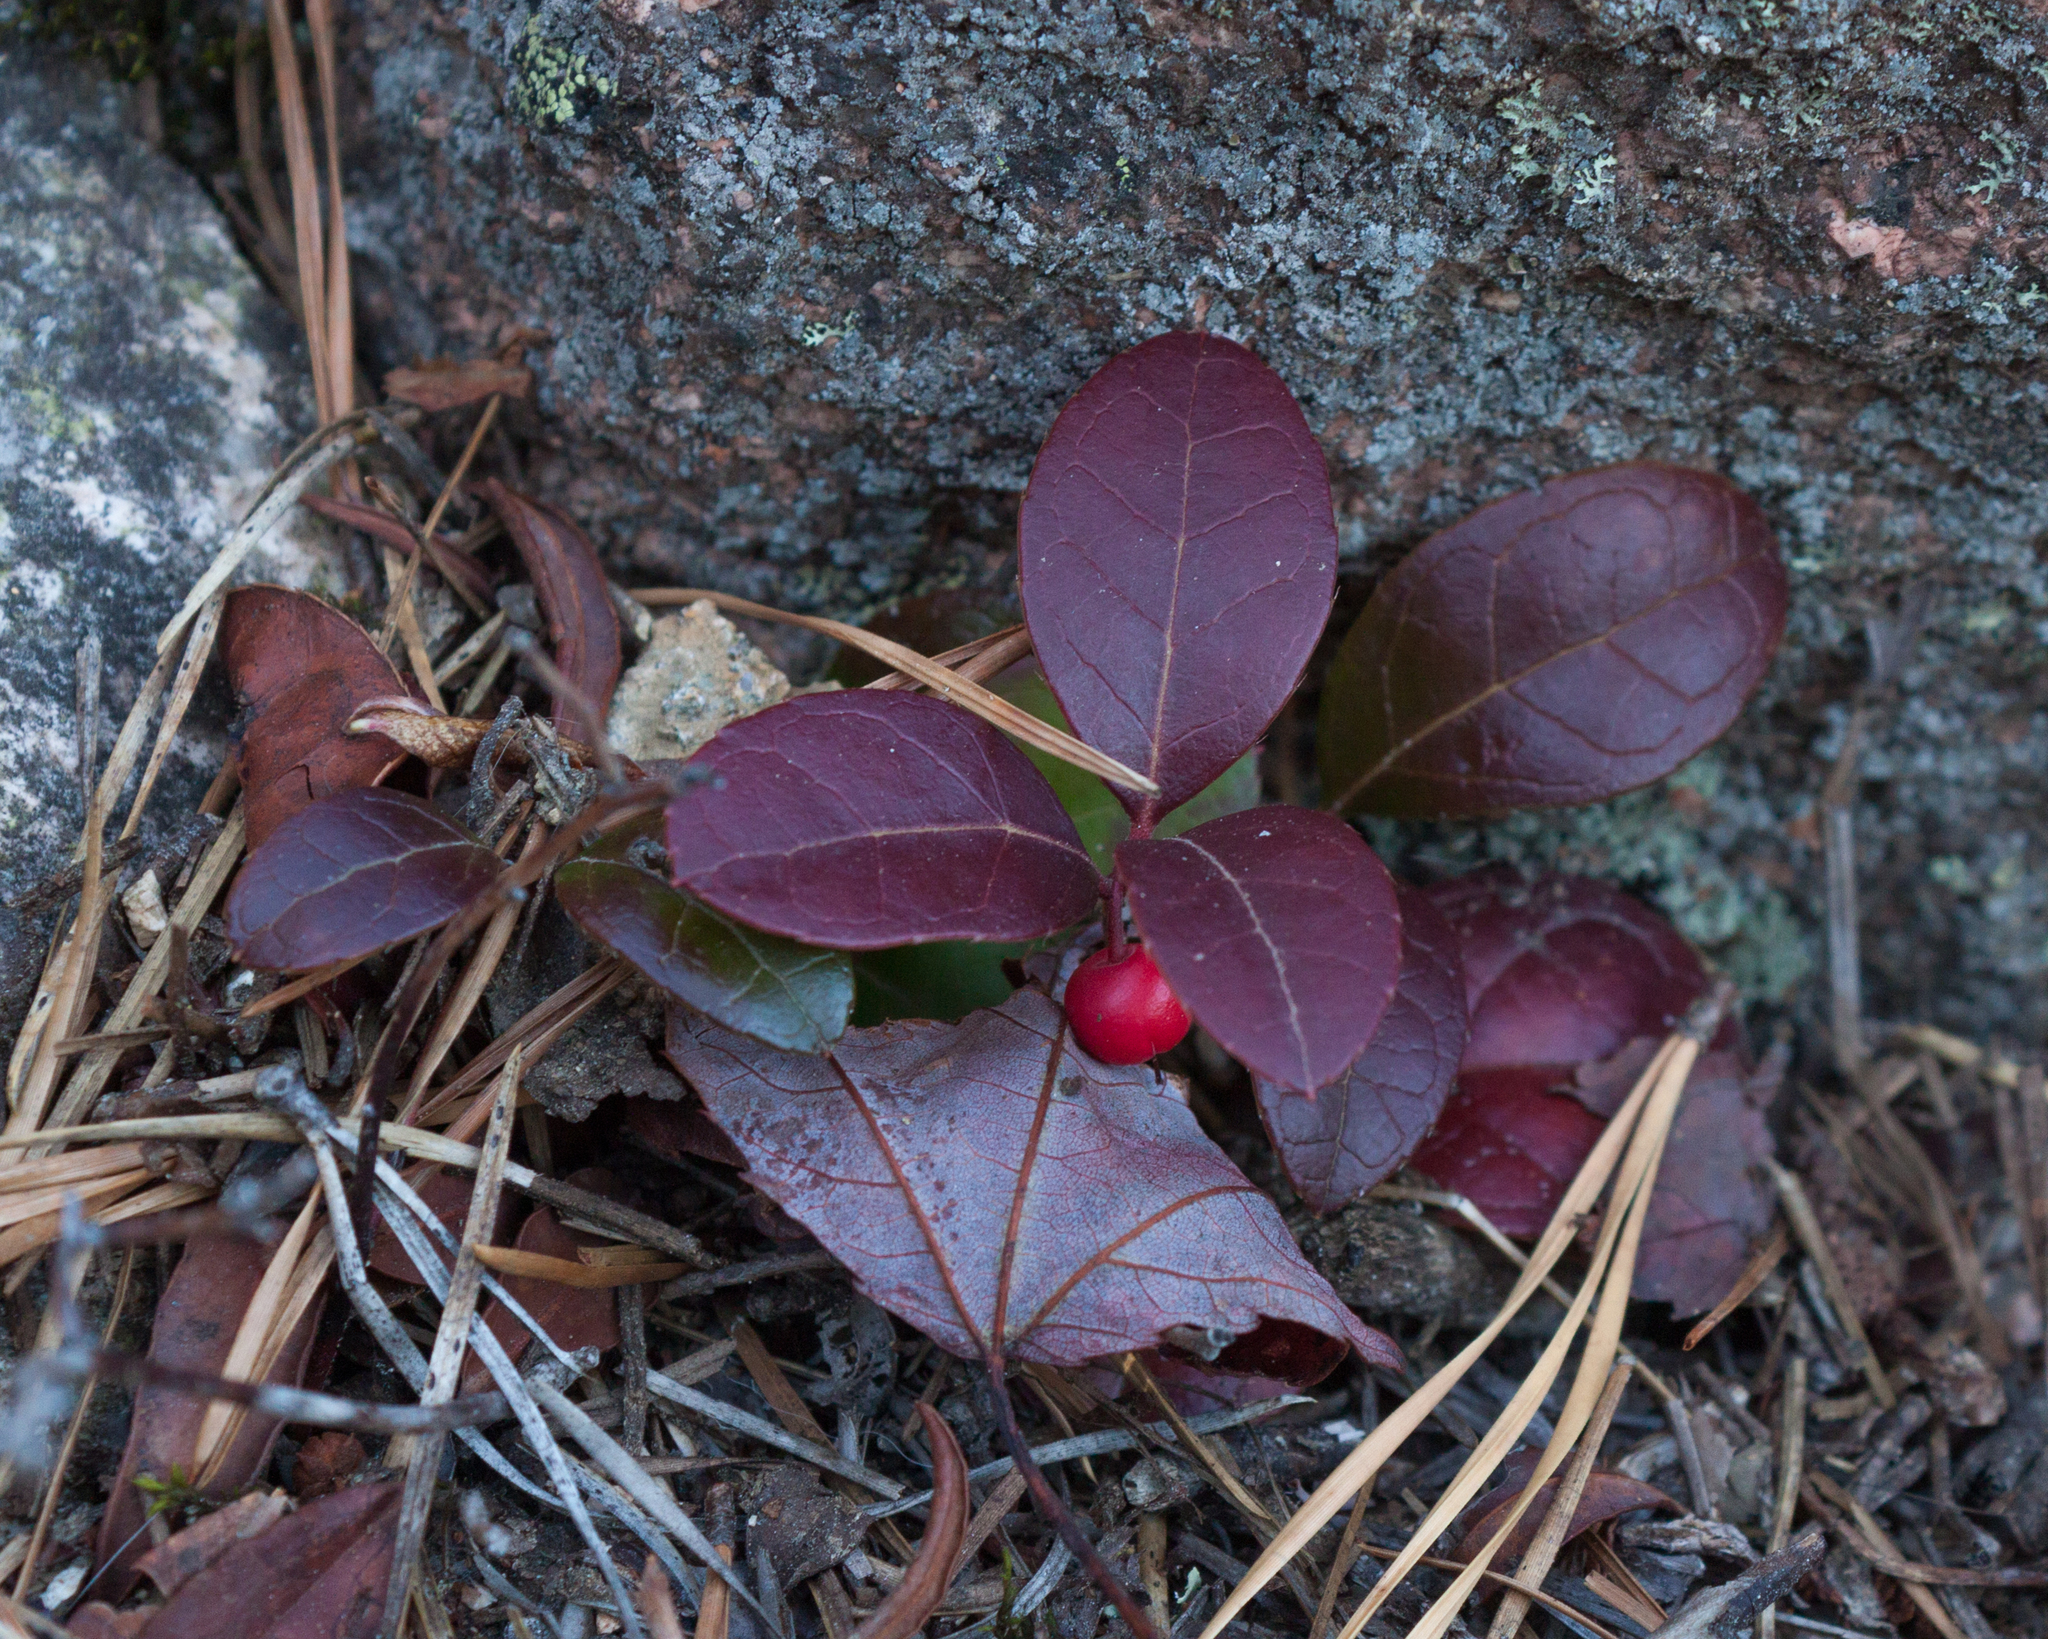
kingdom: Plantae
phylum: Tracheophyta
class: Magnoliopsida
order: Ericales
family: Ericaceae
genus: Gaultheria
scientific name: Gaultheria procumbens
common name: Checkerberry
